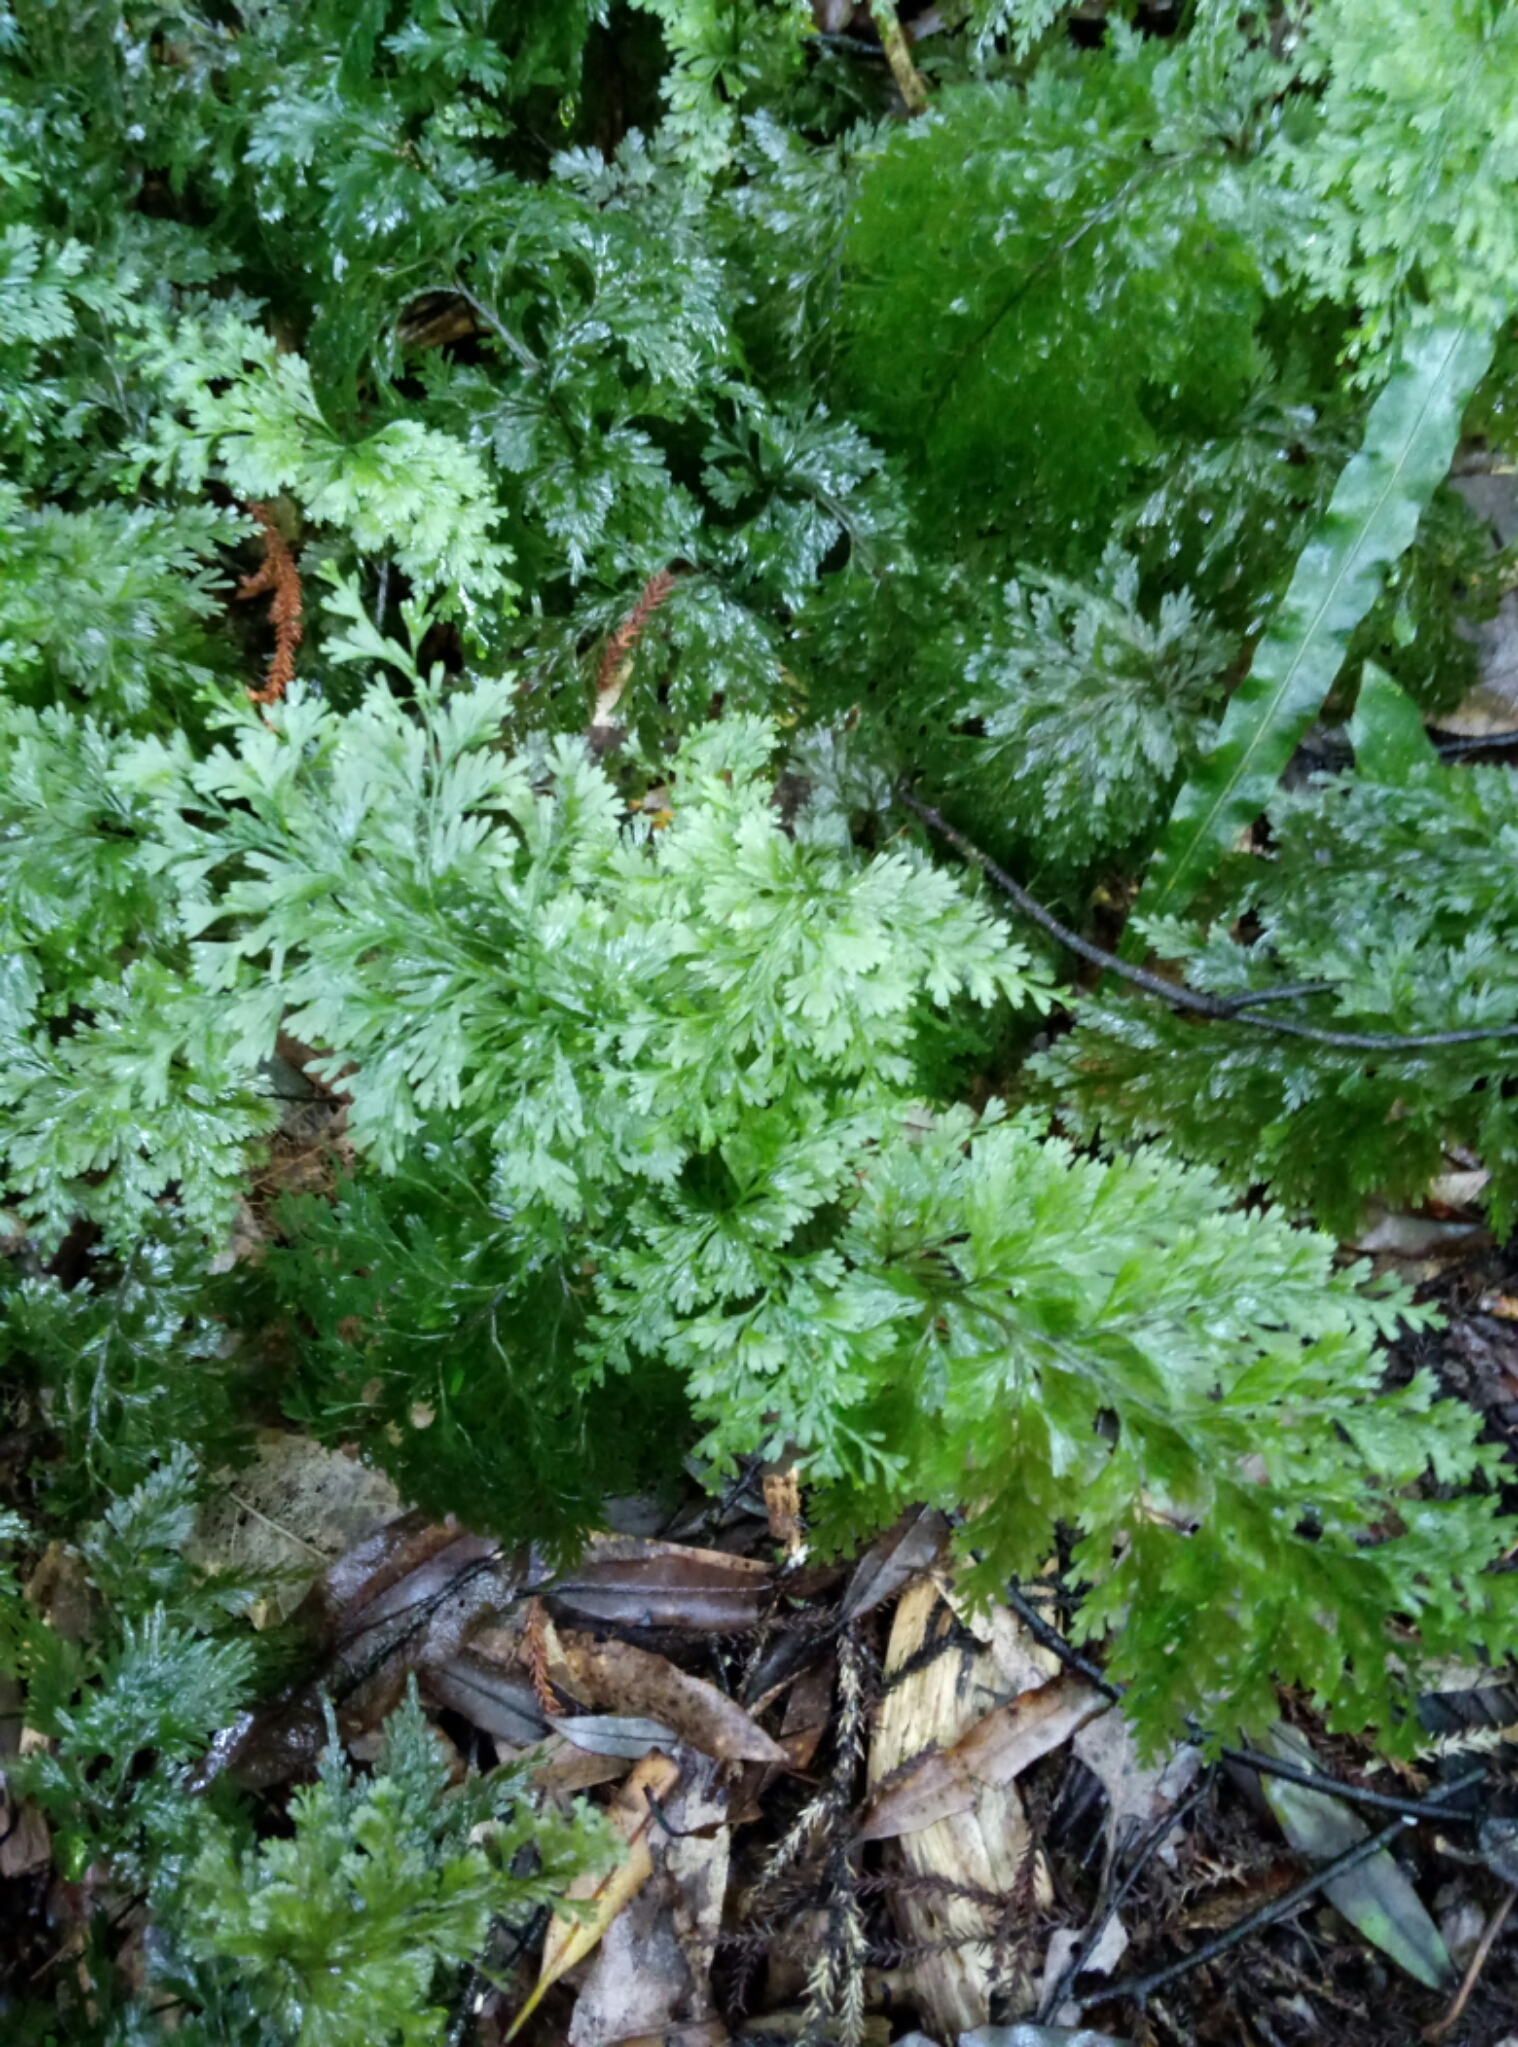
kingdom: Plantae
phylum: Tracheophyta
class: Polypodiopsida
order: Hymenophyllales
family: Hymenophyllaceae
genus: Hymenophyllum
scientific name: Hymenophyllum demissum
